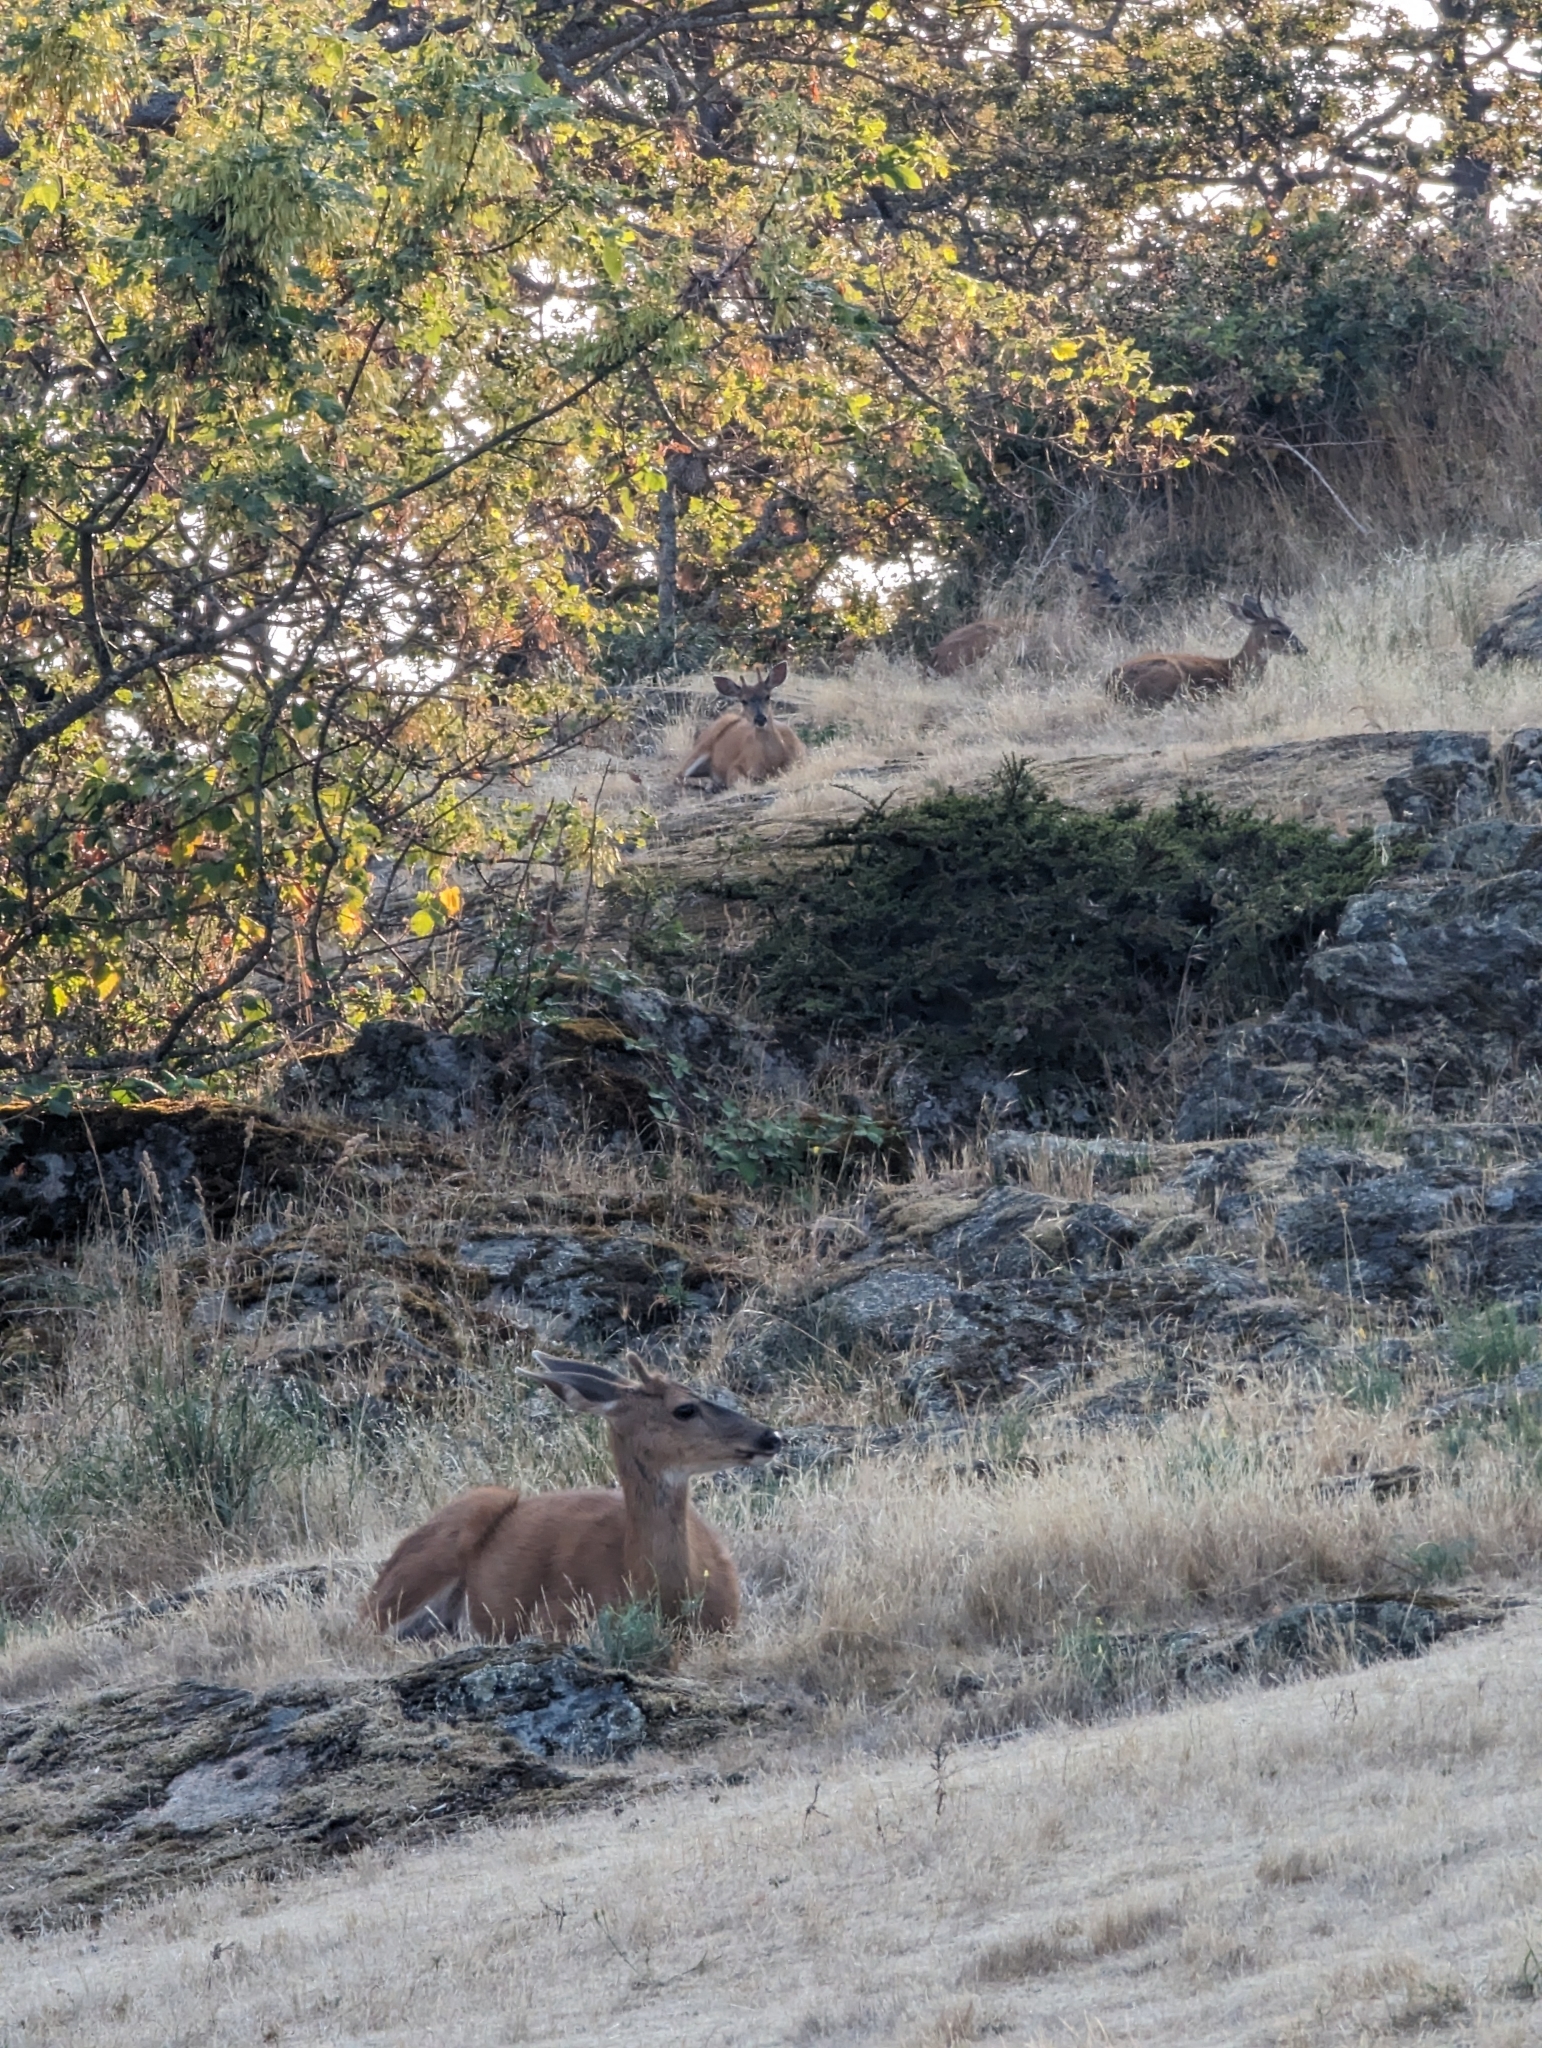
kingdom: Animalia
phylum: Chordata
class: Mammalia
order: Artiodactyla
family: Cervidae
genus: Odocoileus
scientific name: Odocoileus hemionus
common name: Mule deer
